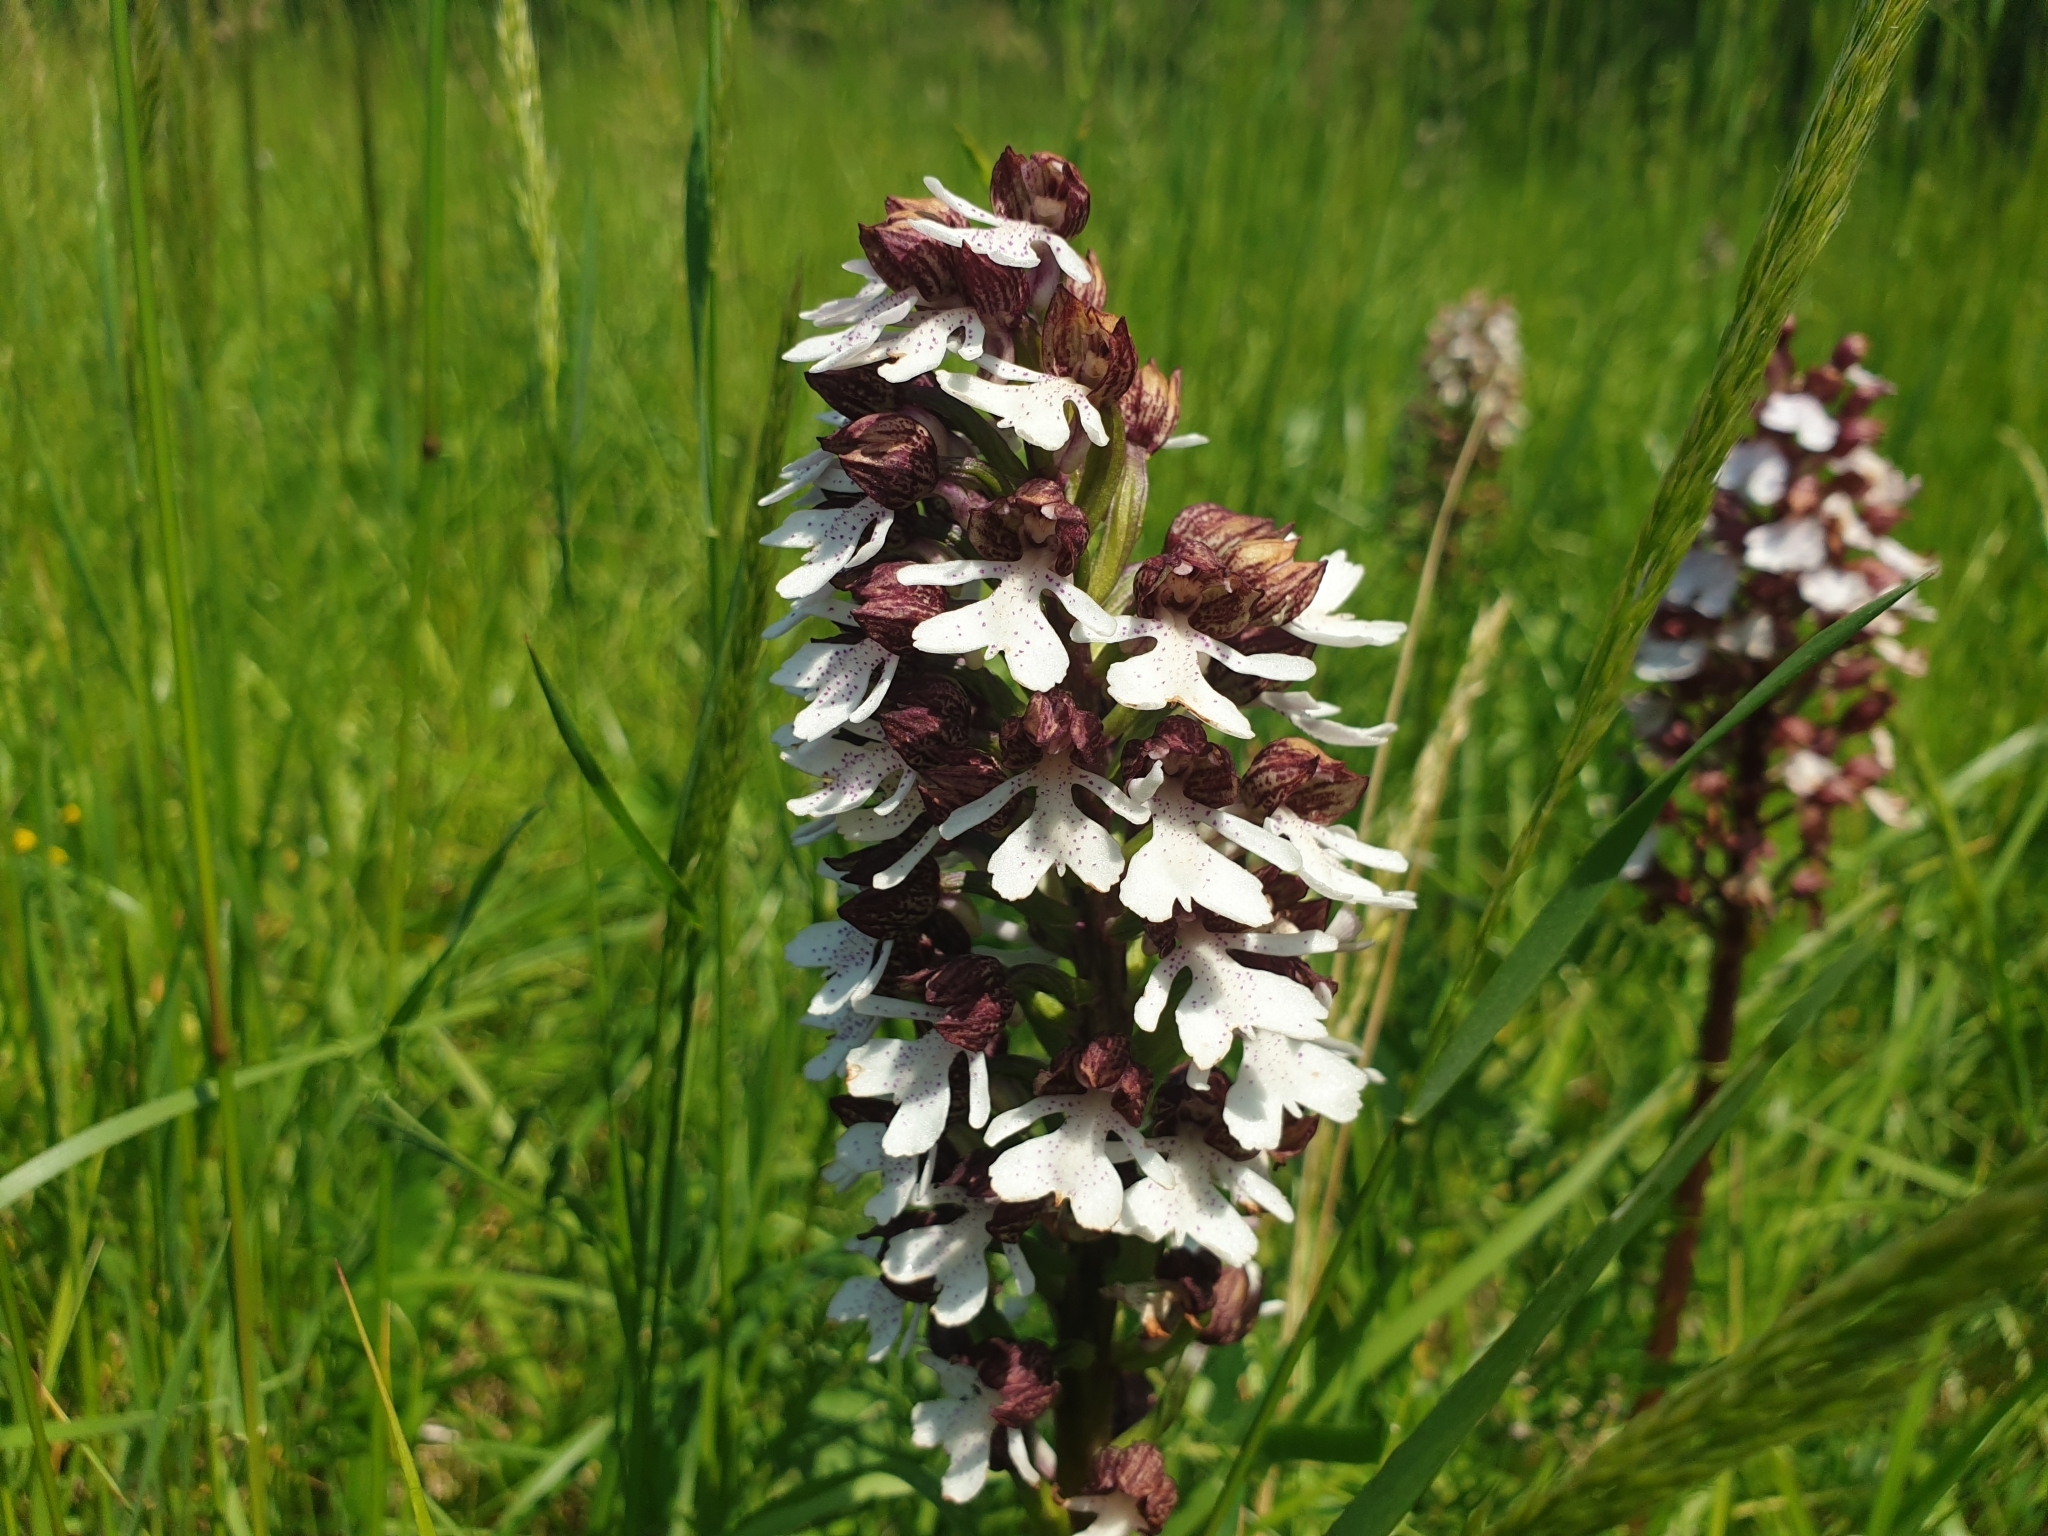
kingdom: Plantae
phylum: Tracheophyta
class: Liliopsida
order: Asparagales
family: Orchidaceae
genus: Orchis
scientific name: Orchis purpurea
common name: Lady orchid
